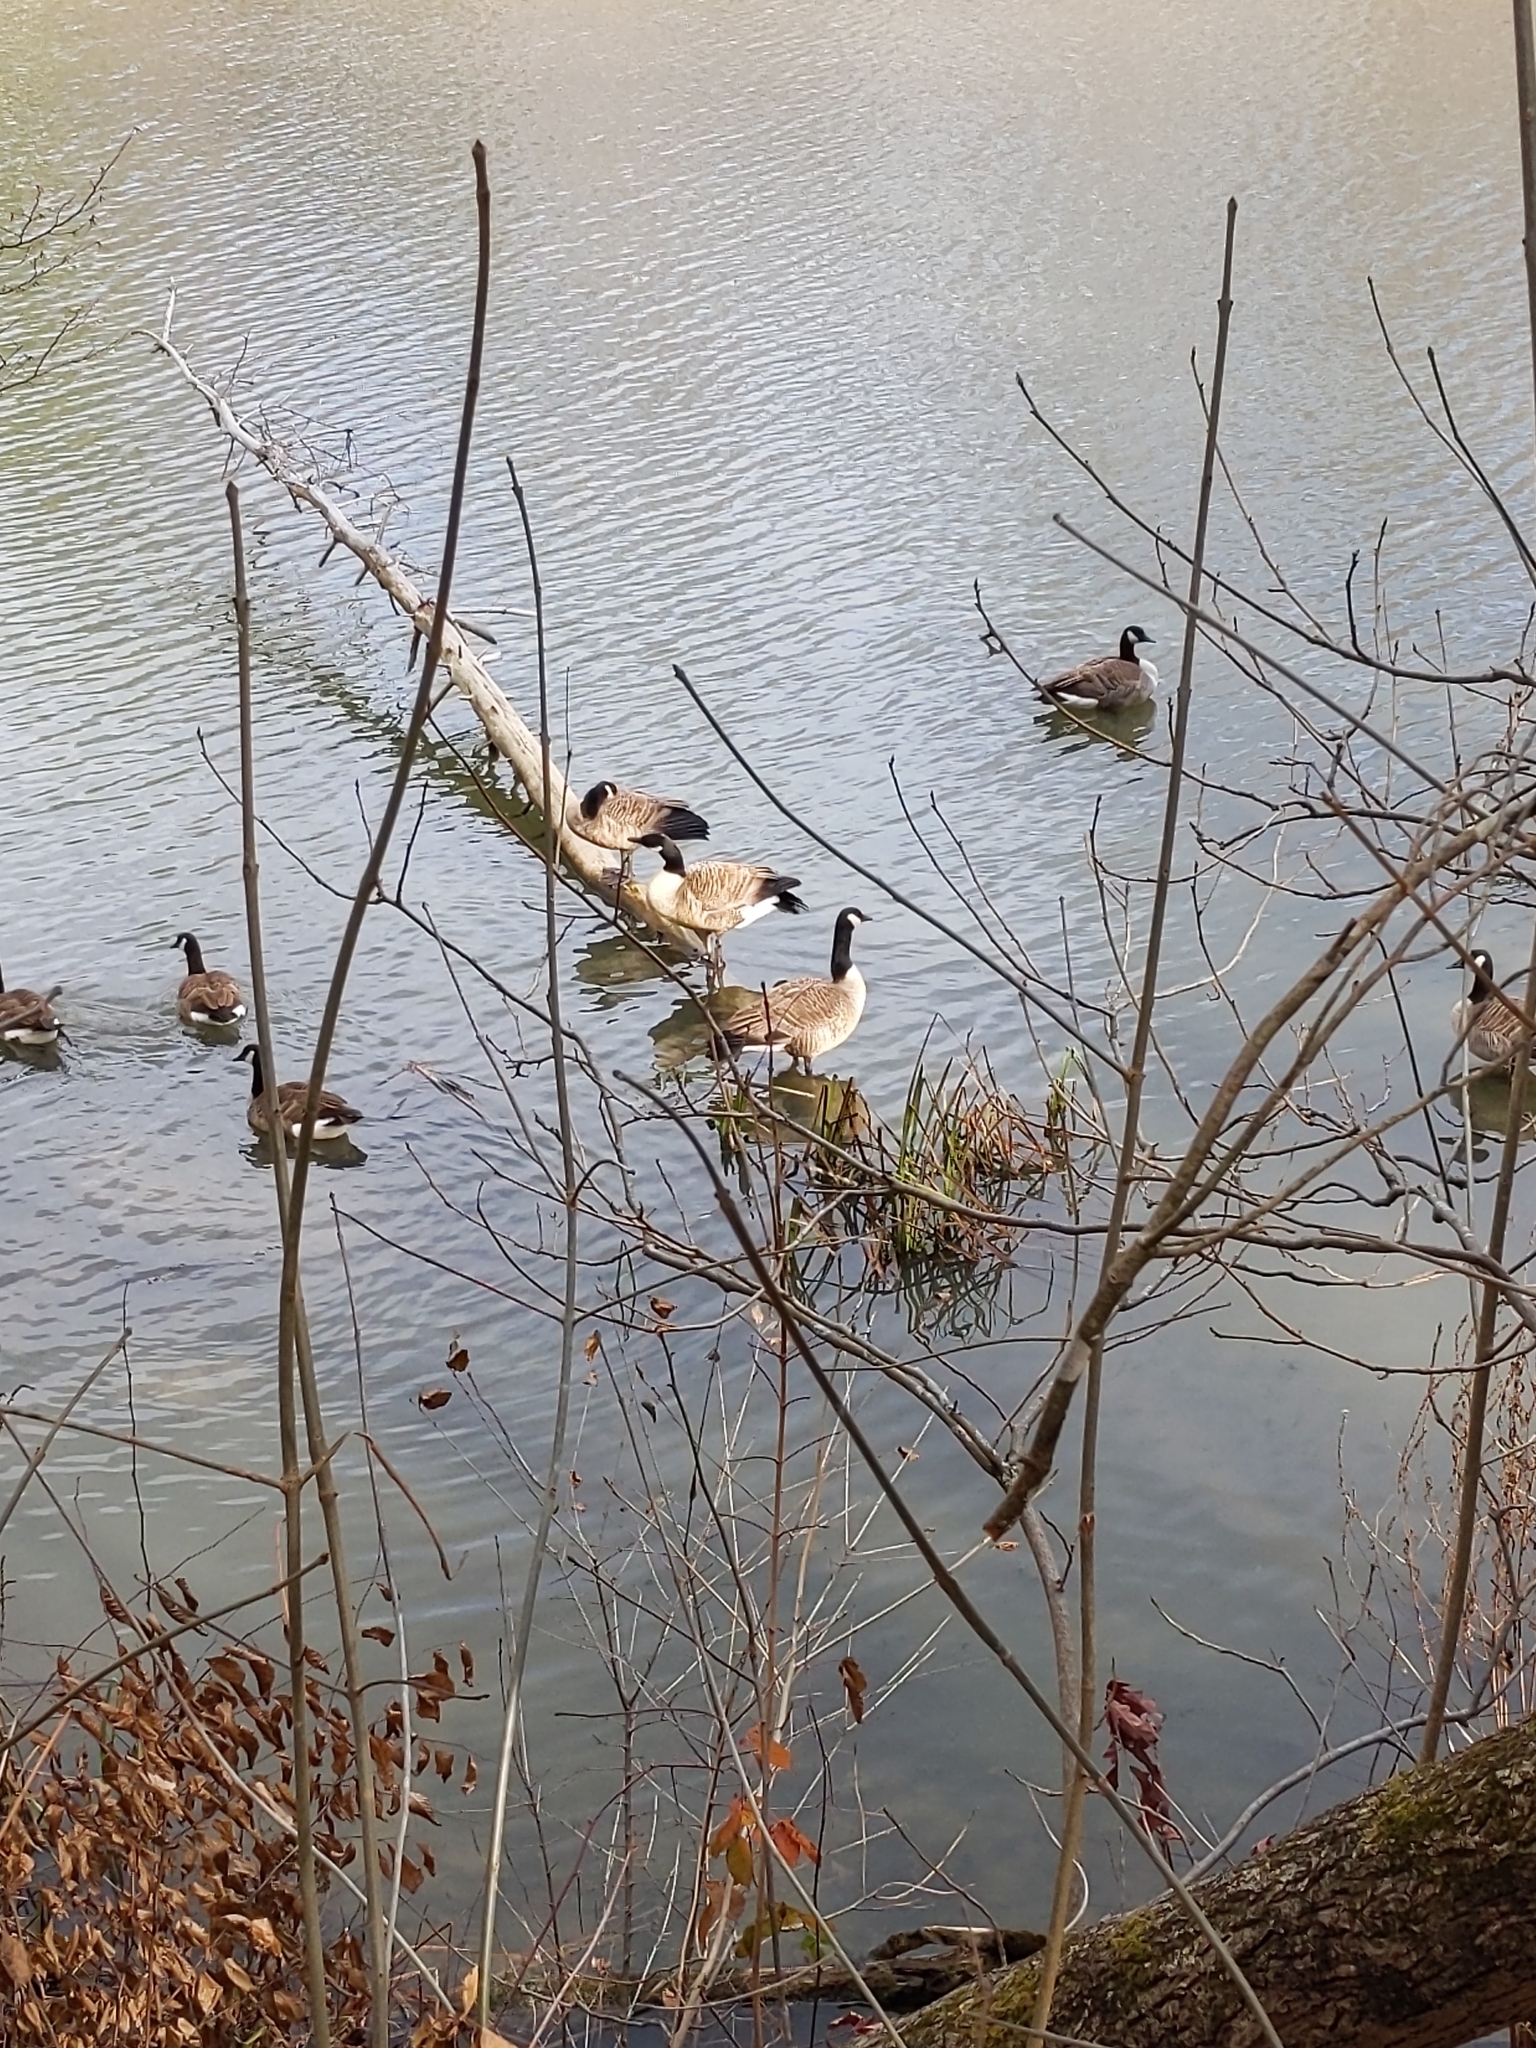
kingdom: Animalia
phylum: Chordata
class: Aves
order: Anseriformes
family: Anatidae
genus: Branta
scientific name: Branta canadensis
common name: Canada goose
